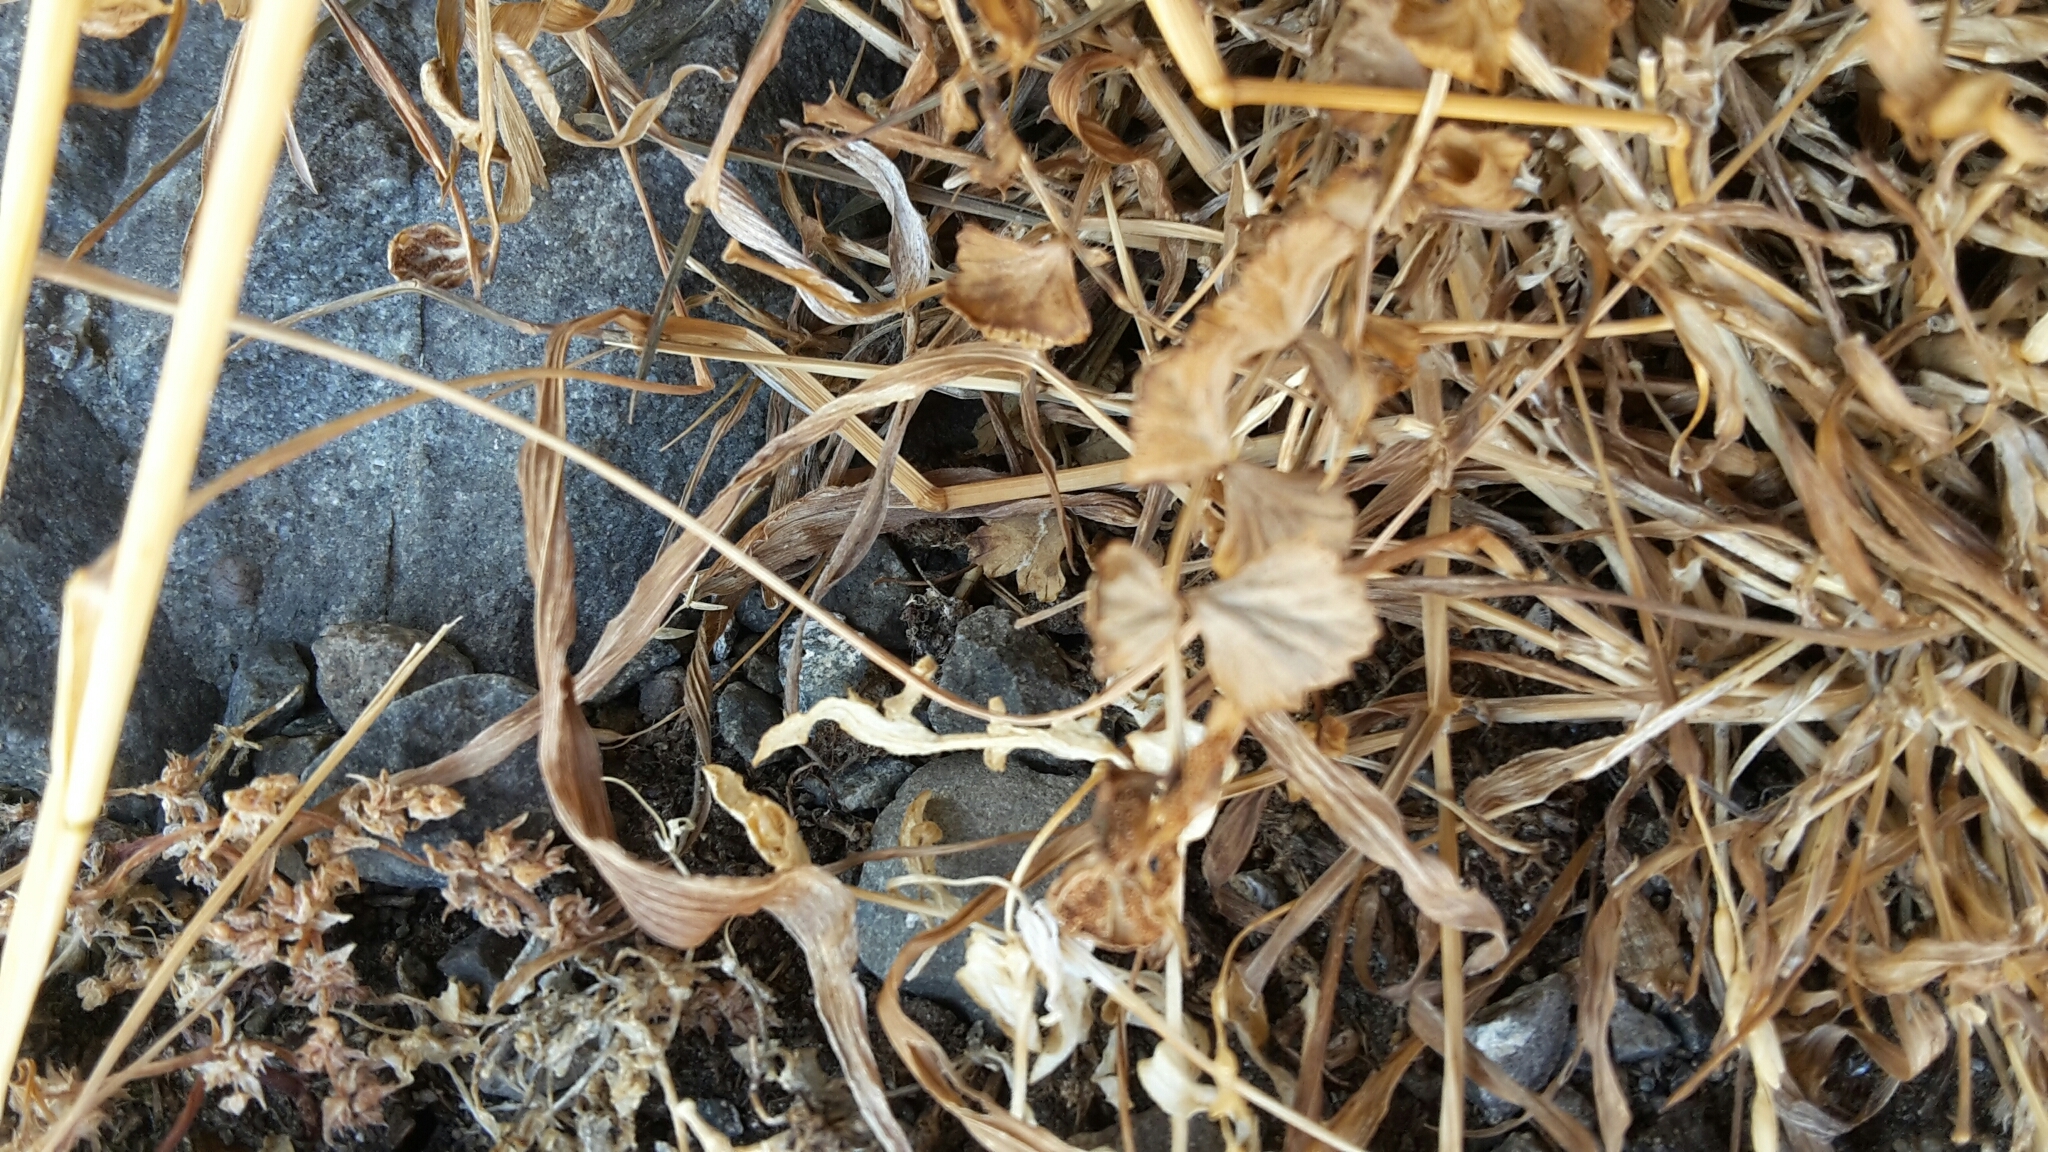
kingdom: Plantae
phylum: Tracheophyta
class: Polypodiopsida
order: Polypodiales
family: Aspleniaceae
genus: Asplenium
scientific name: Asplenium flabellifolium
